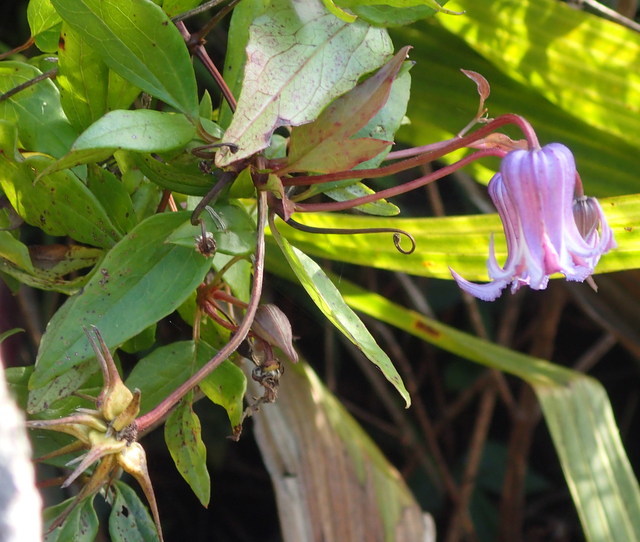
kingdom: Plantae
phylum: Tracheophyta
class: Magnoliopsida
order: Ranunculales
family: Ranunculaceae
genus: Clematis
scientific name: Clematis crispa
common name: Curly clematis
